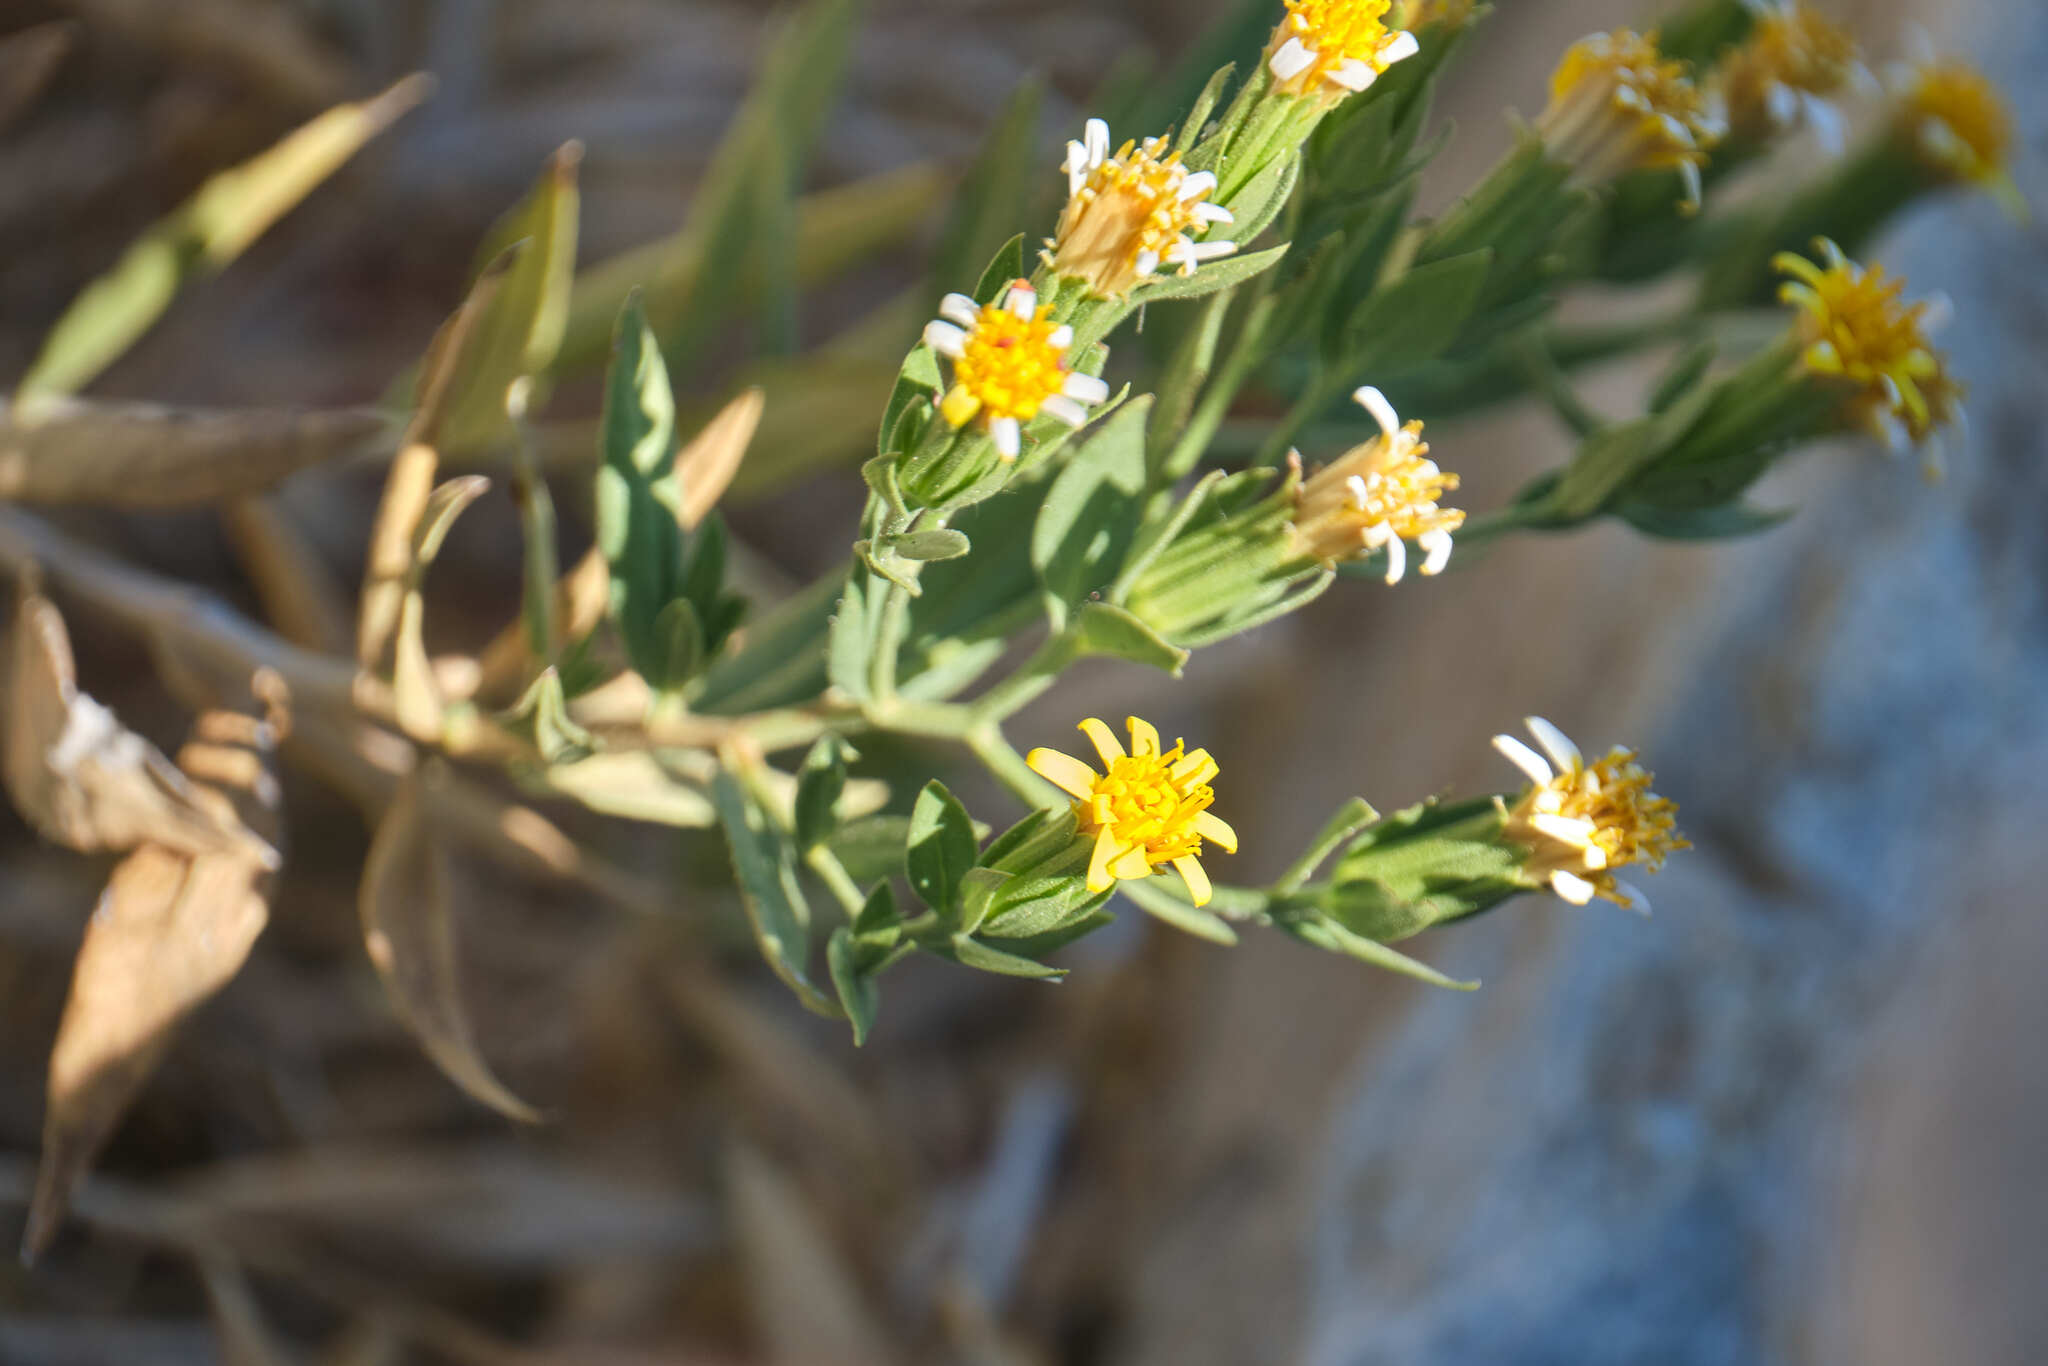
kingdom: Plantae
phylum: Tracheophyta
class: Magnoliopsida
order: Asterales
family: Asteraceae
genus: Trixis
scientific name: Trixis californica
